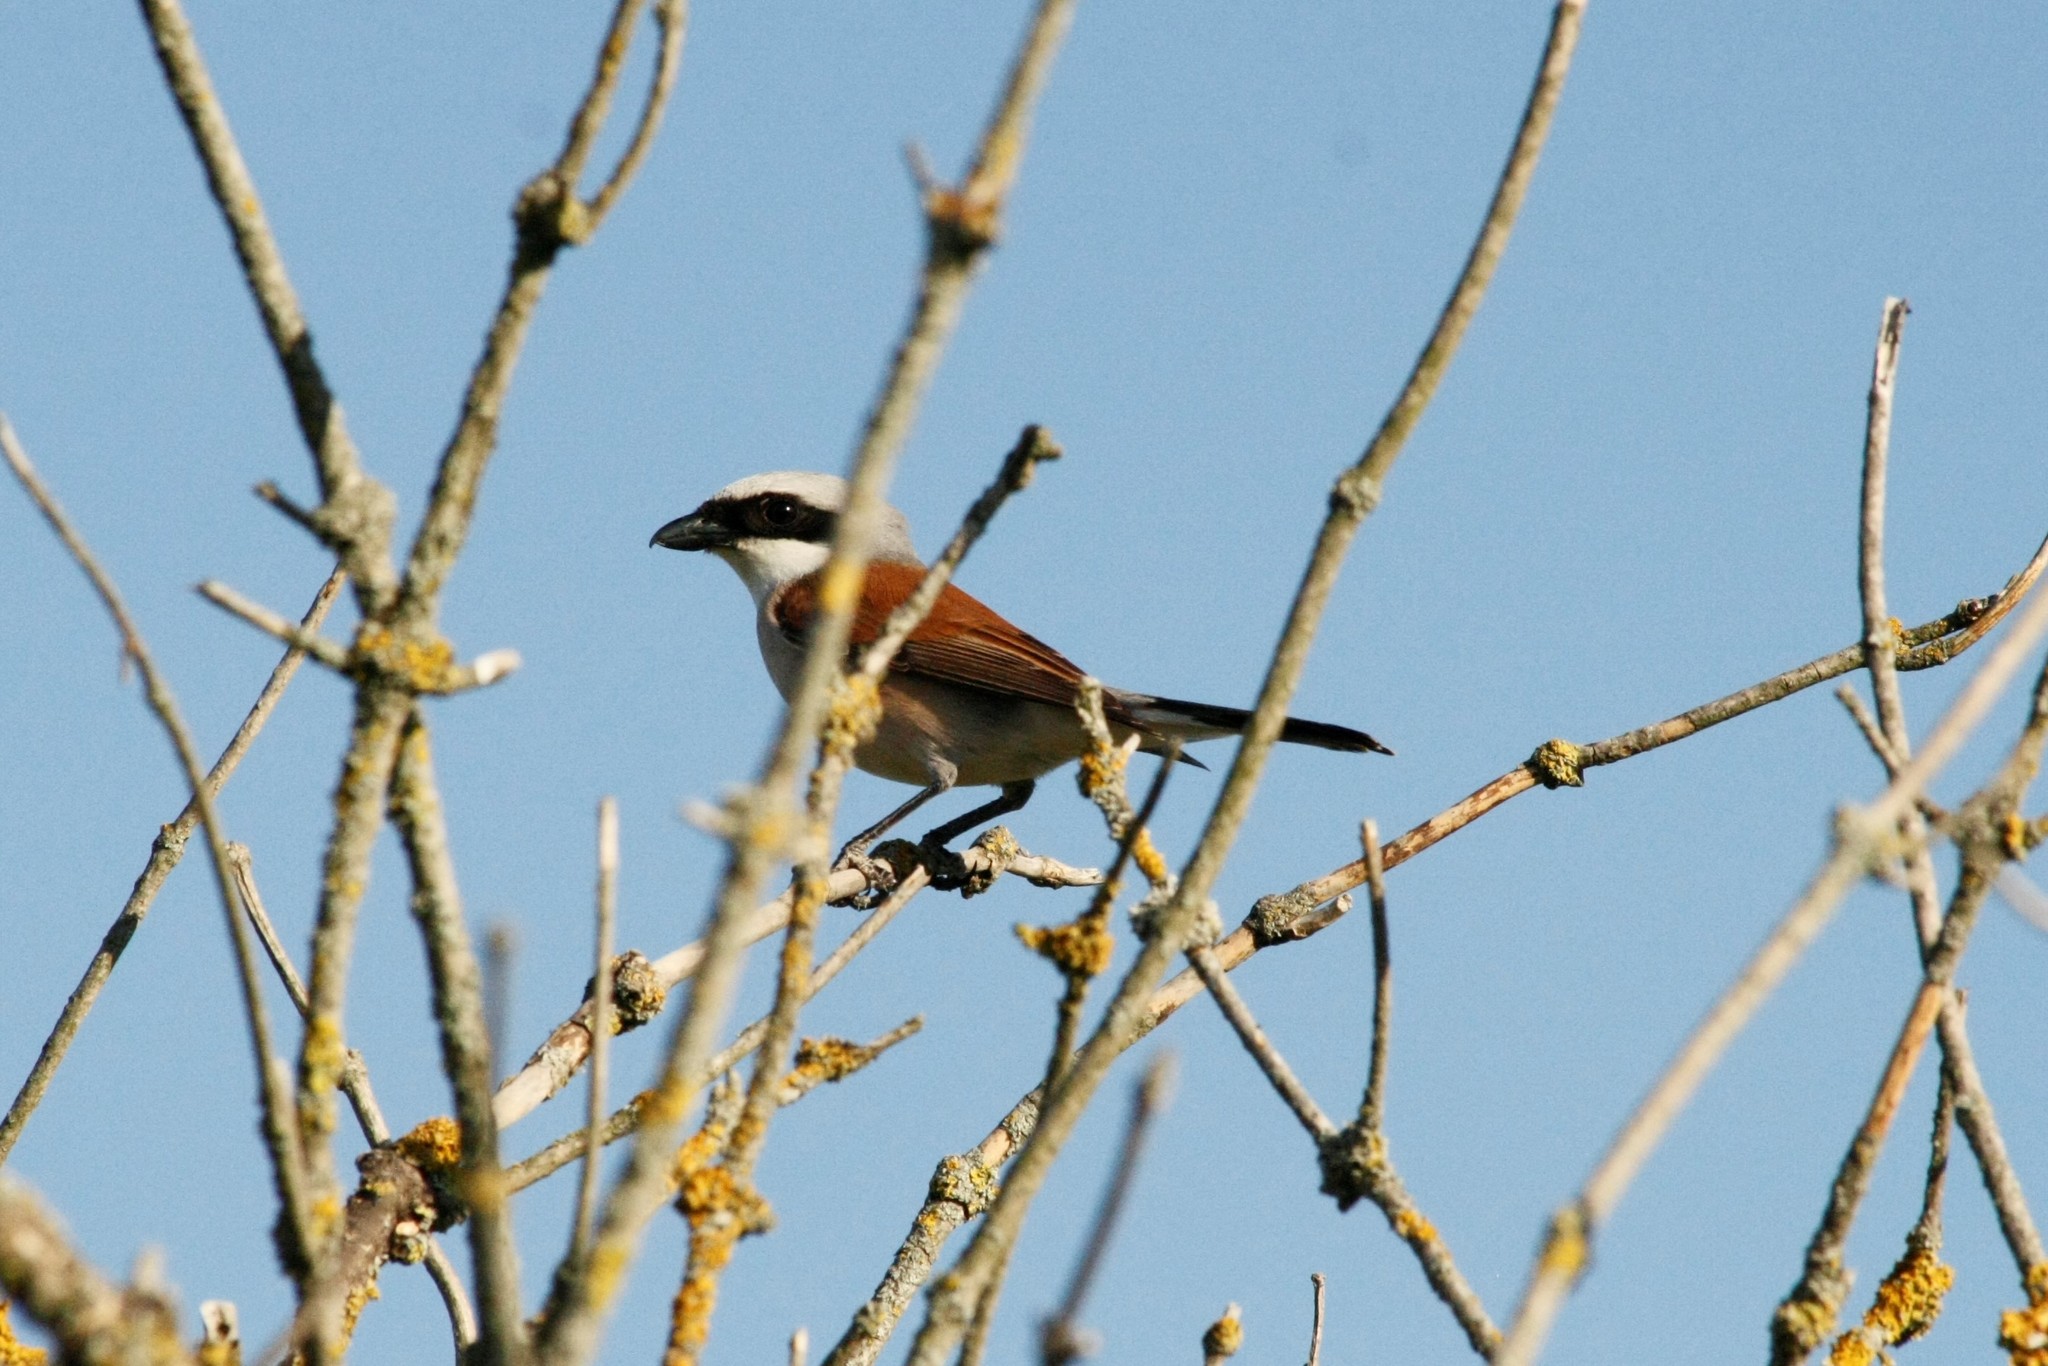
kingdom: Animalia
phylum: Chordata
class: Aves
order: Passeriformes
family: Laniidae
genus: Lanius
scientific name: Lanius collurio
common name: Red-backed shrike
